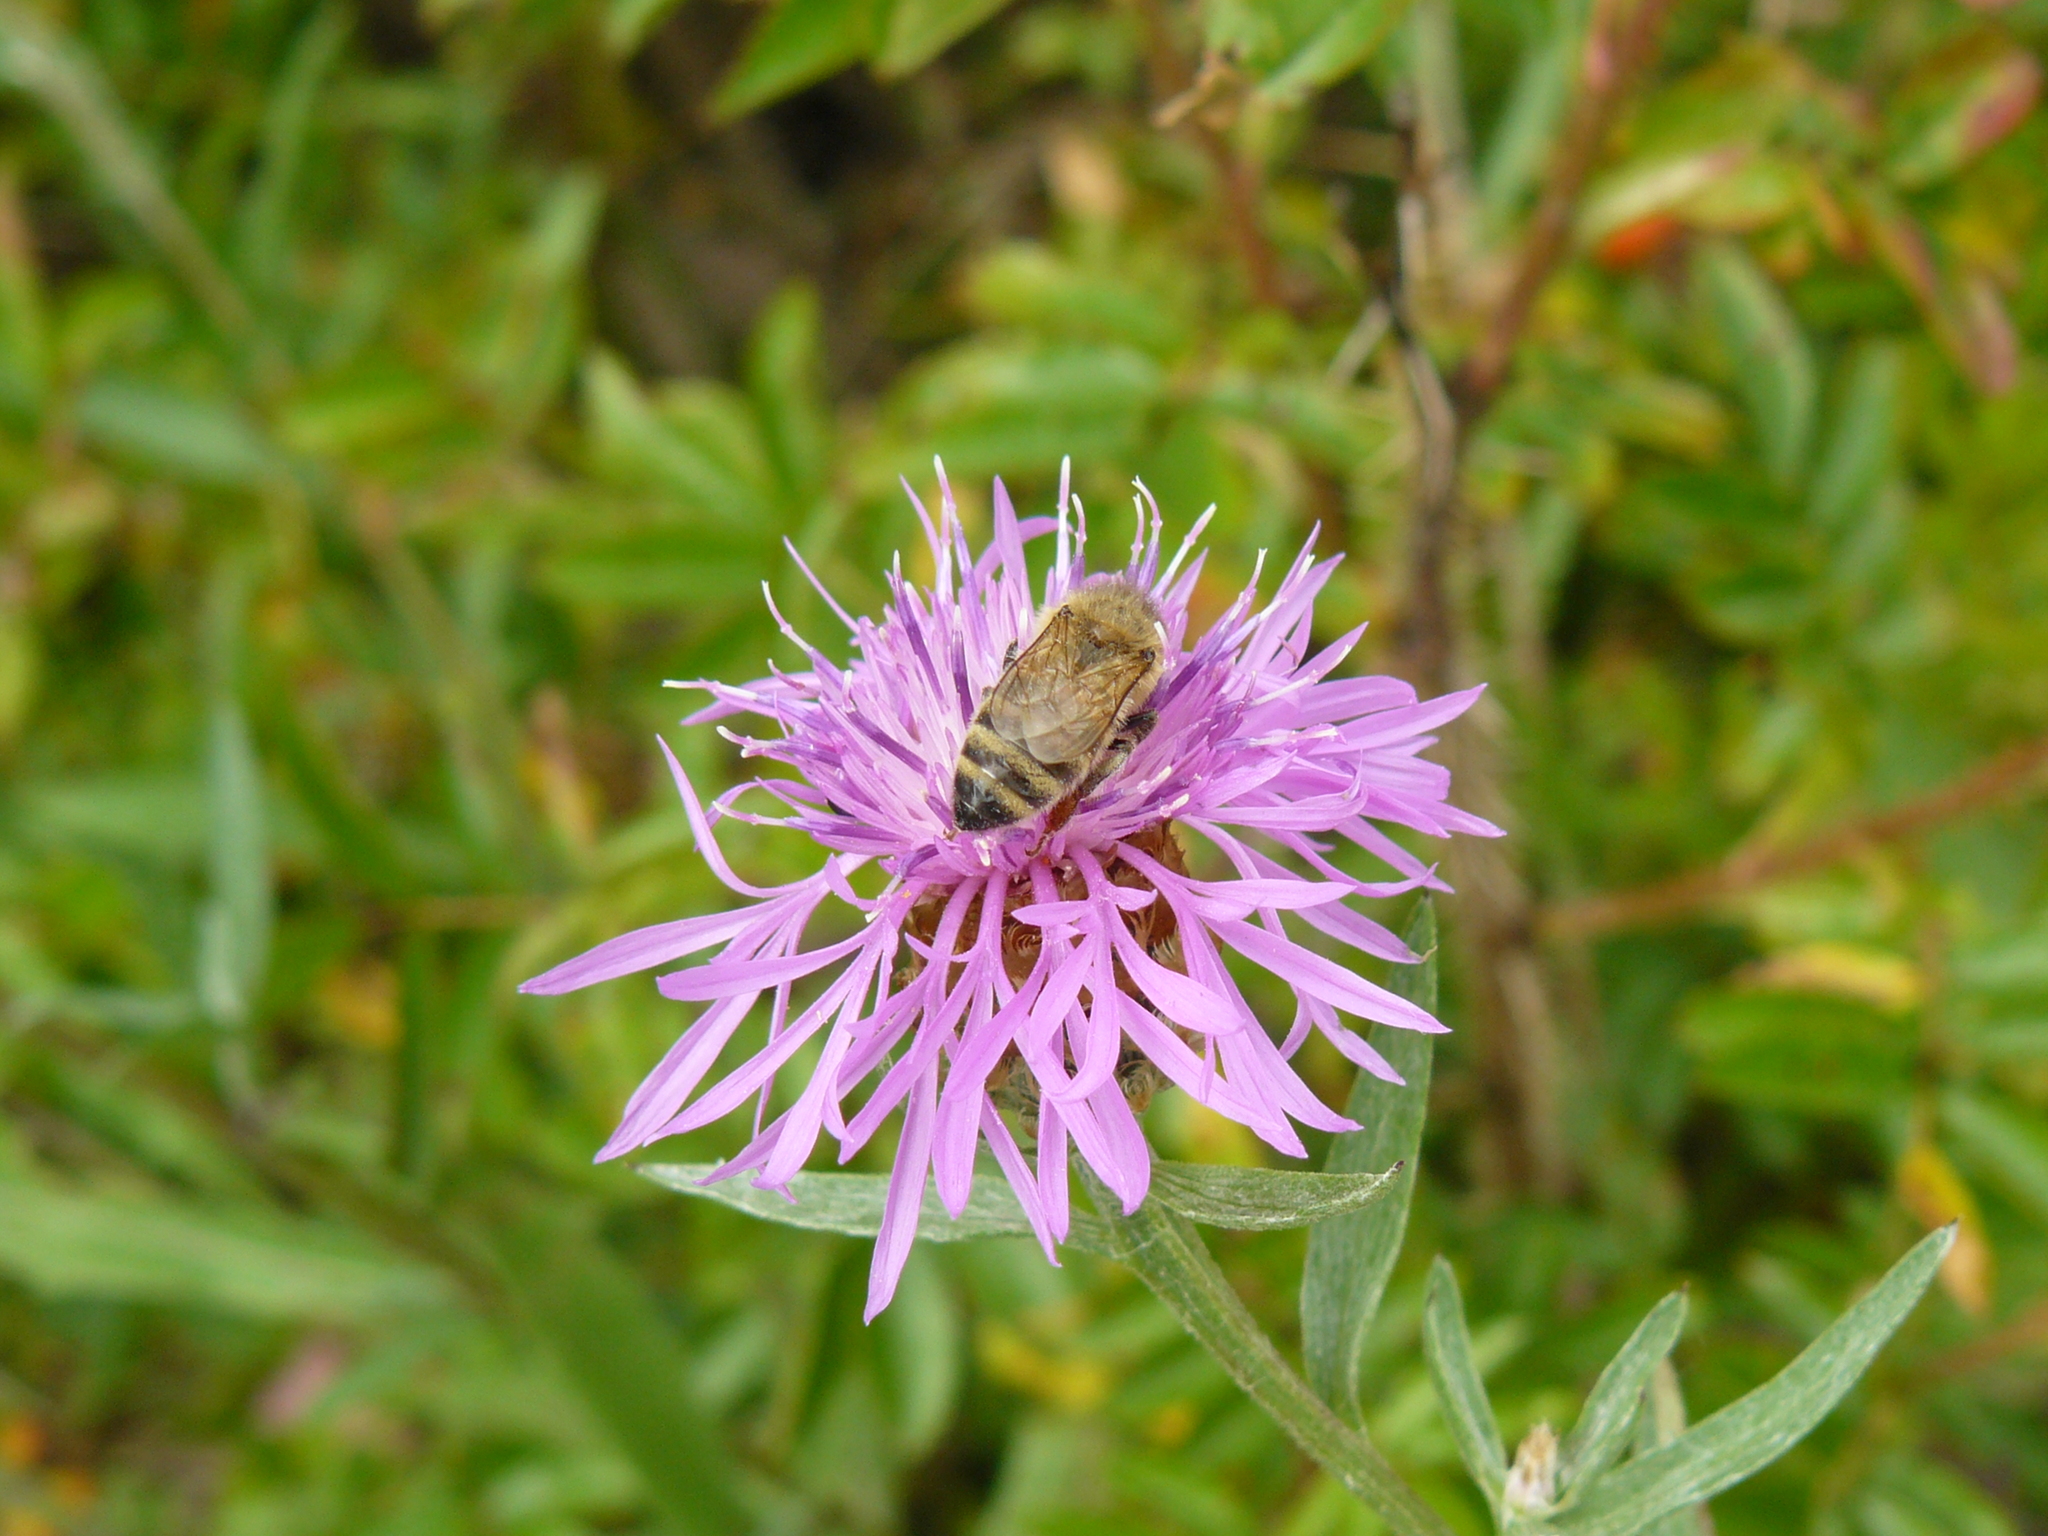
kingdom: Animalia
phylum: Arthropoda
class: Insecta
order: Hymenoptera
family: Apidae
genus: Apis
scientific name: Apis mellifera
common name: Honey bee
